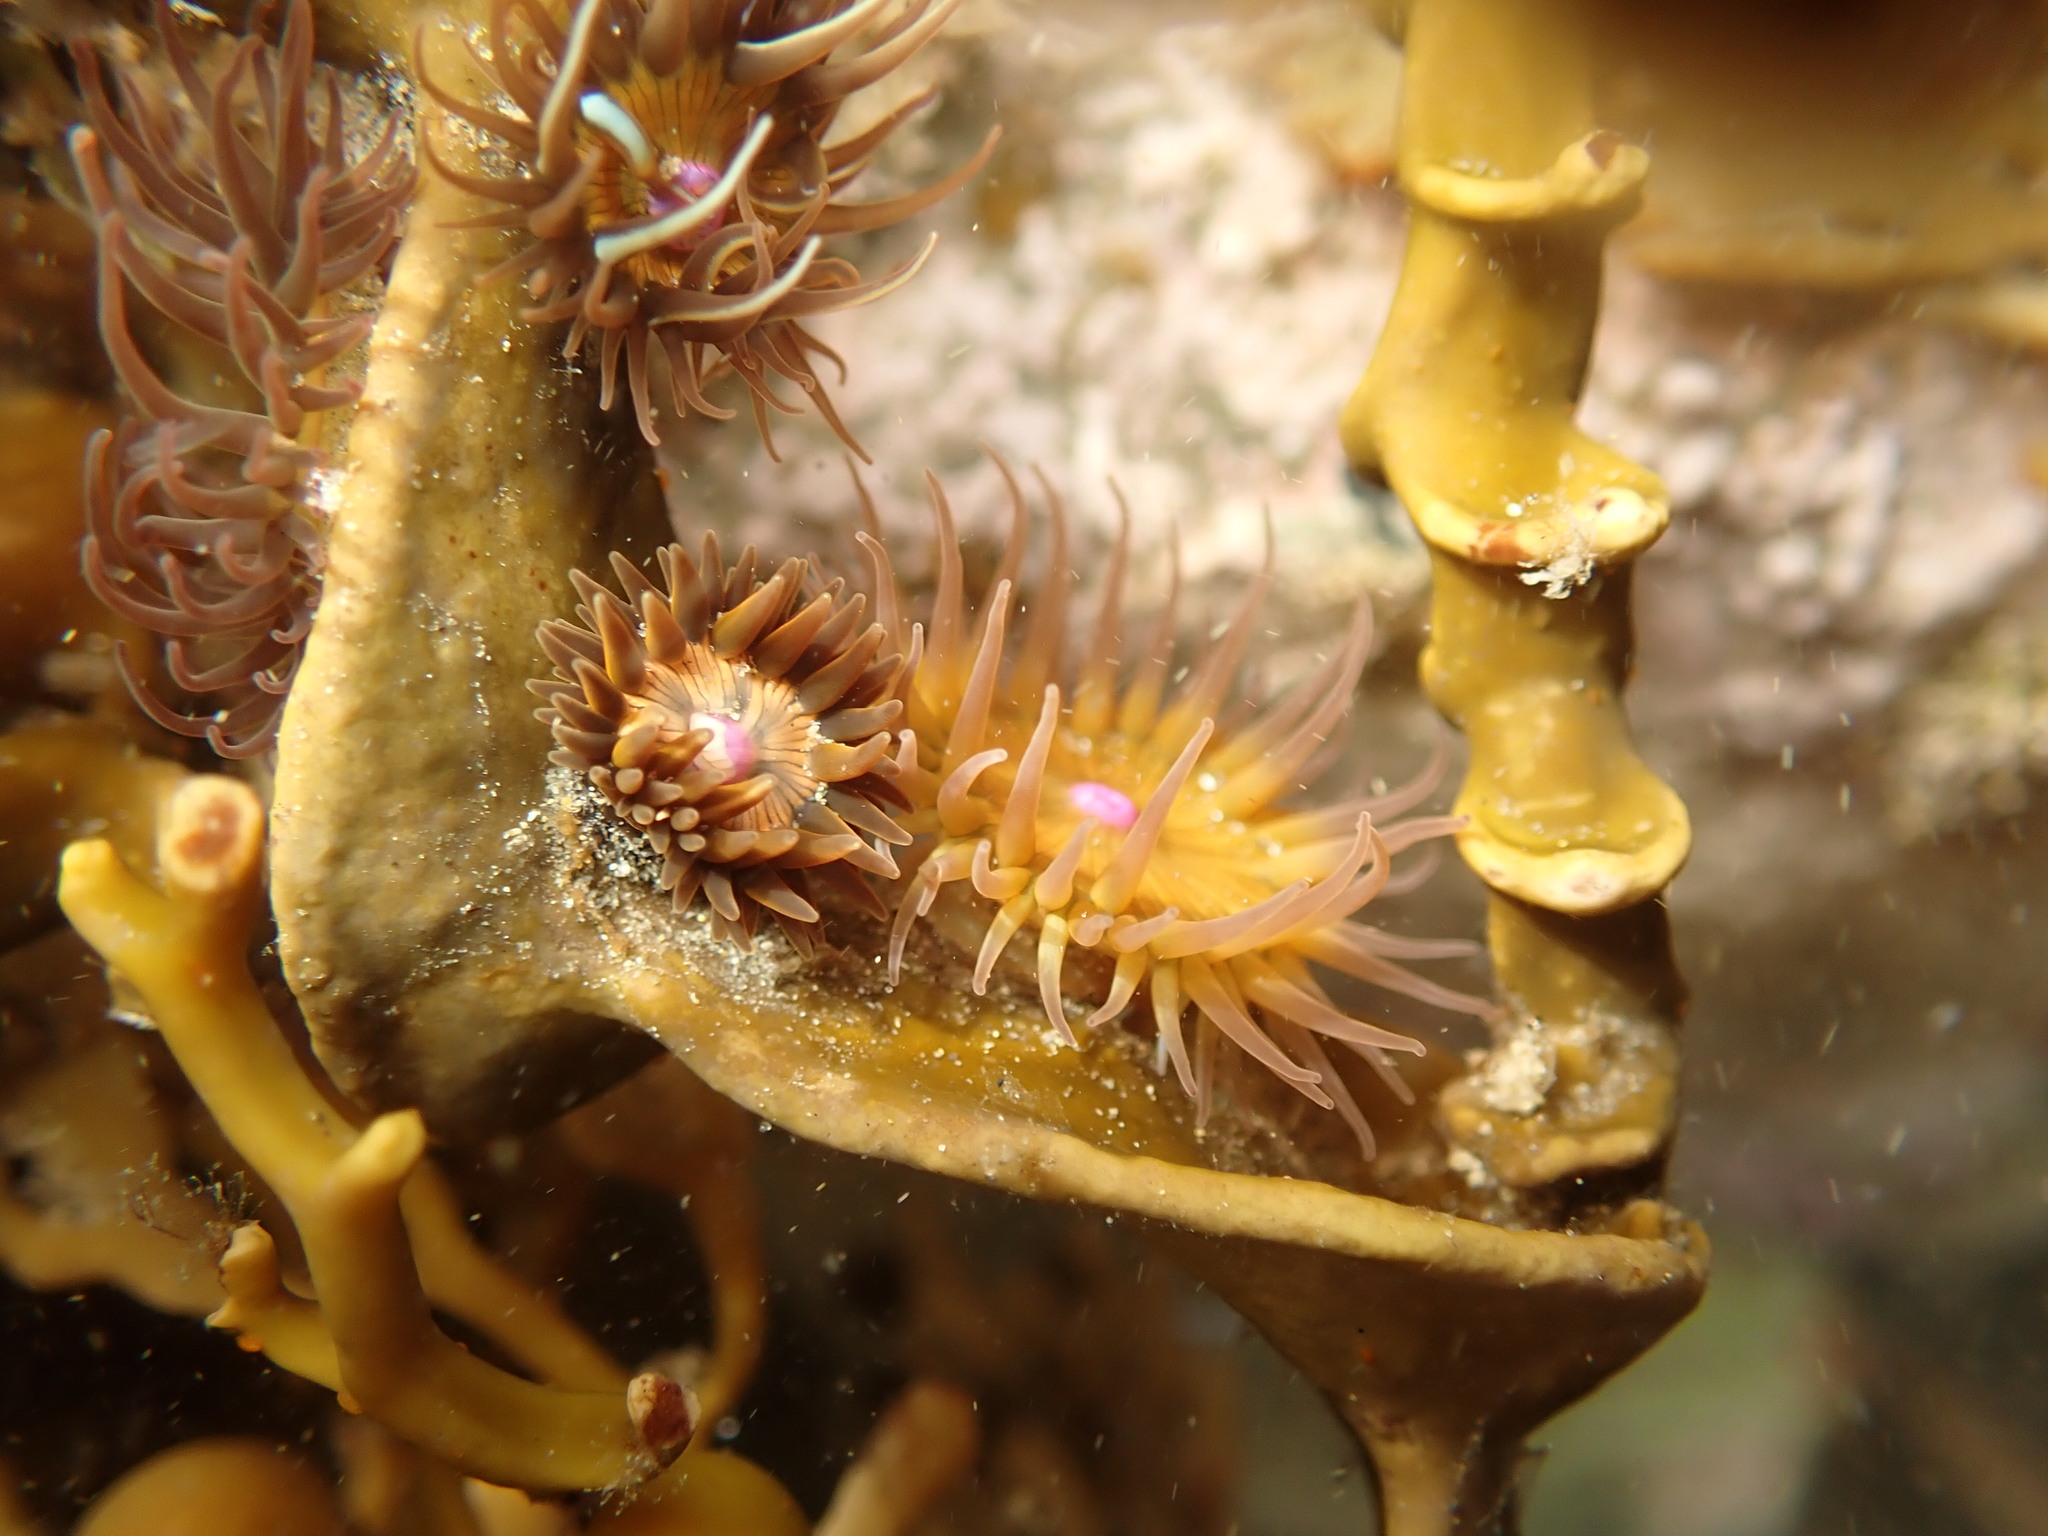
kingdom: Animalia
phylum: Cnidaria
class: Anthozoa
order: Actiniaria
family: Hormathiidae
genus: Handactis
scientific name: Handactis nutrix
